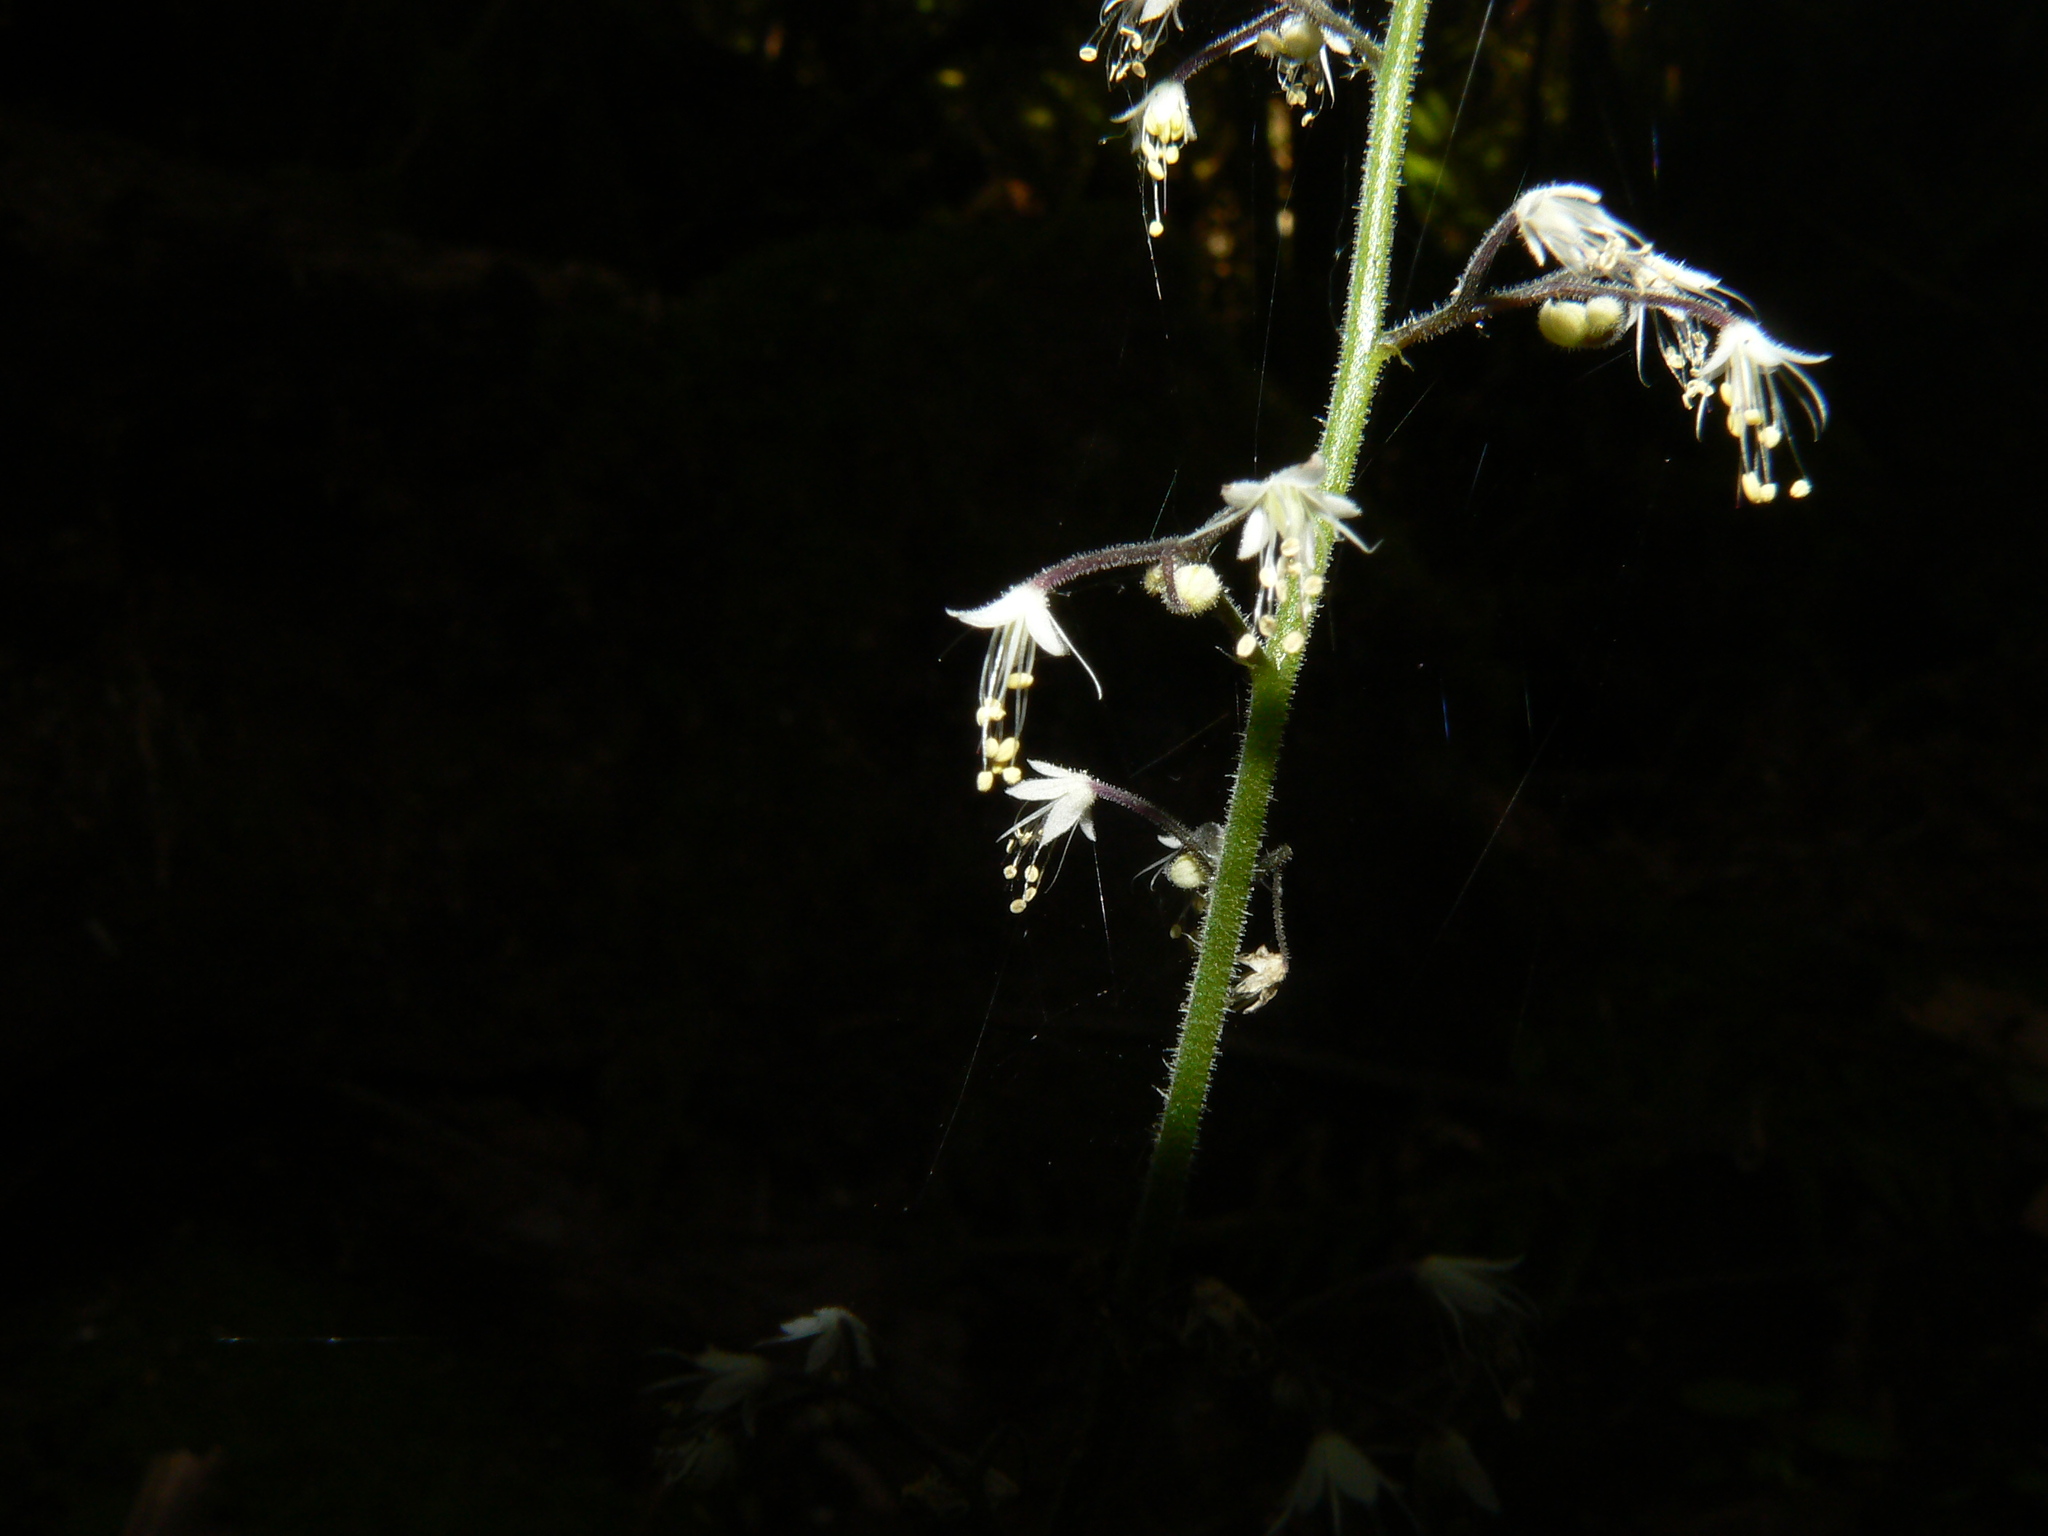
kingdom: Plantae
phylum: Tracheophyta
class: Magnoliopsida
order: Saxifragales
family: Saxifragaceae
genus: Tiarella
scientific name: Tiarella trifoliata
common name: Sugar-scoop
